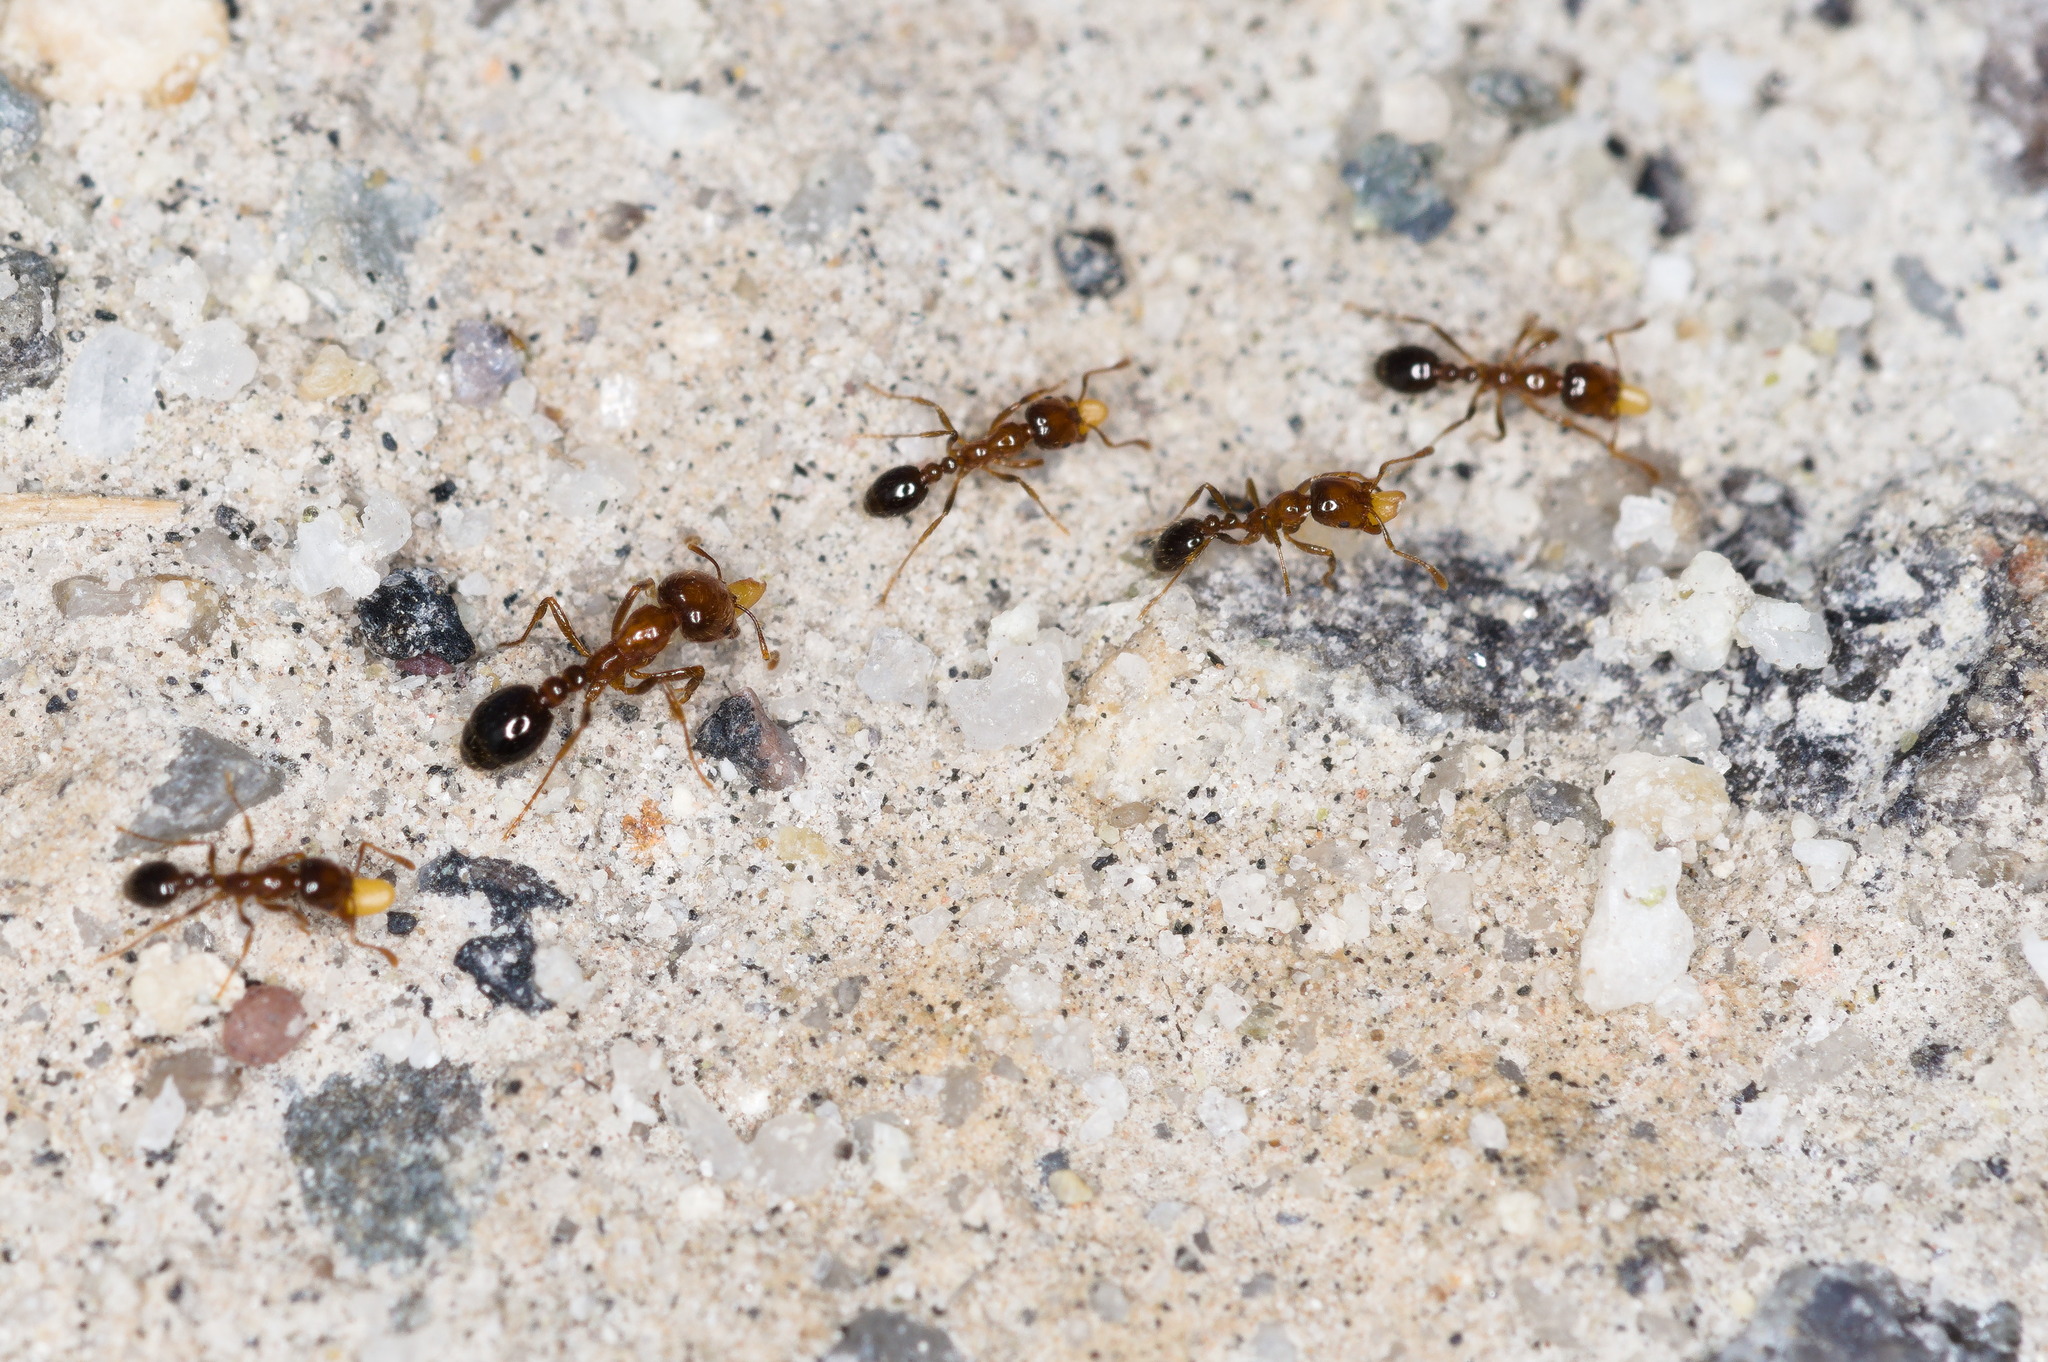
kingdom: Animalia
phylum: Arthropoda
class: Insecta
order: Hymenoptera
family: Formicidae
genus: Solenopsis
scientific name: Solenopsis xyloni
